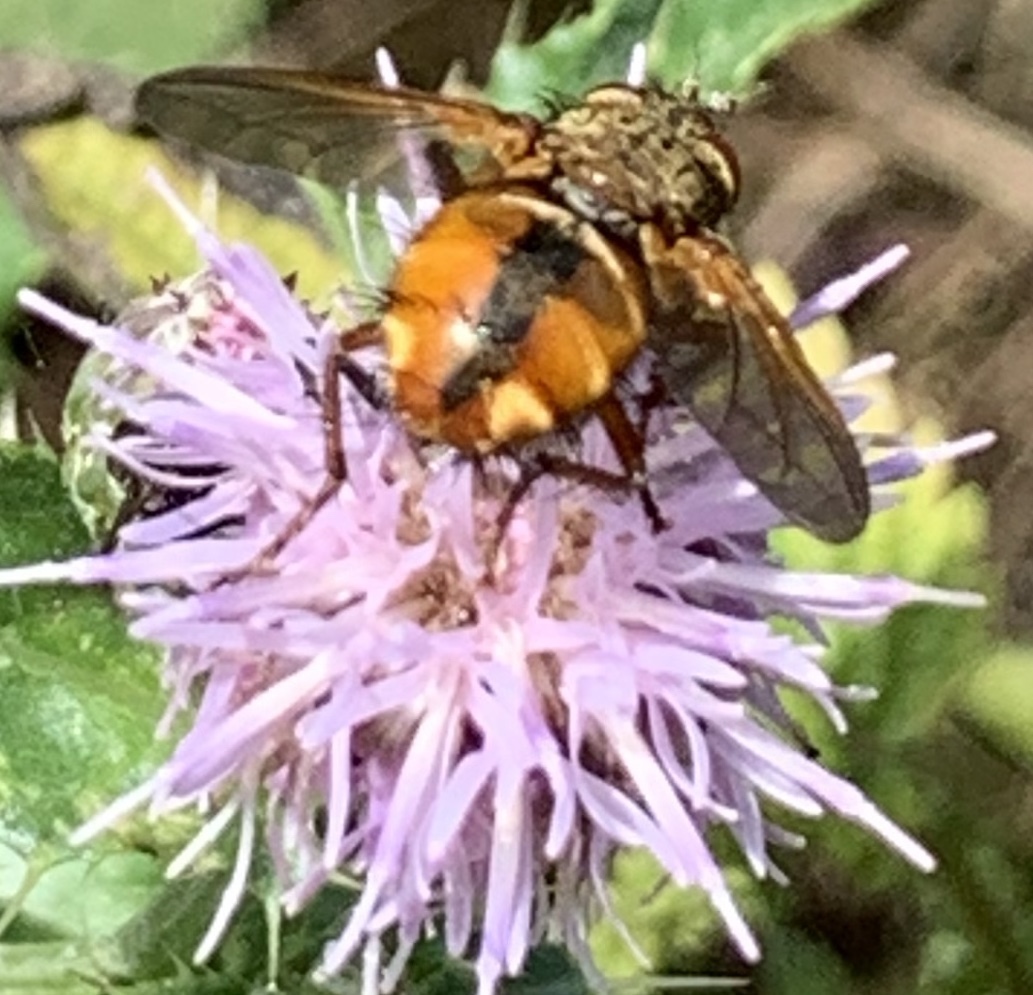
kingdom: Animalia
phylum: Arthropoda
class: Insecta
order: Diptera
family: Tachinidae
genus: Tachina
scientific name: Tachina fera
